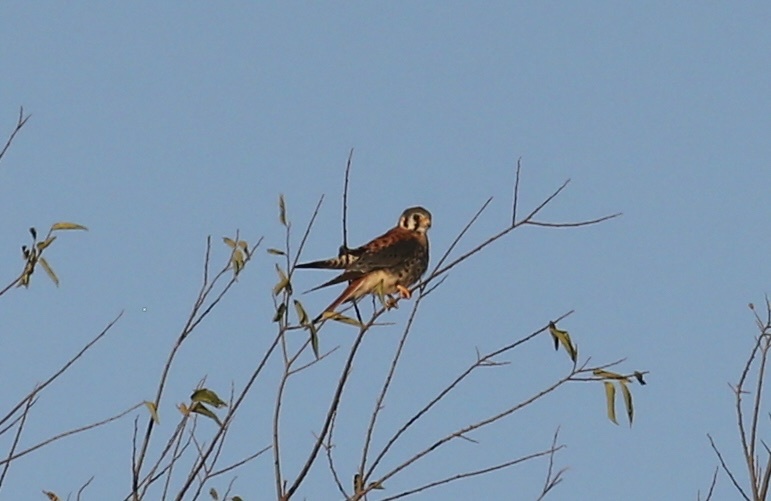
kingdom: Animalia
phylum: Chordata
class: Aves
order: Falconiformes
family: Falconidae
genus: Falco
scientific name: Falco sparverius
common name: American kestrel
